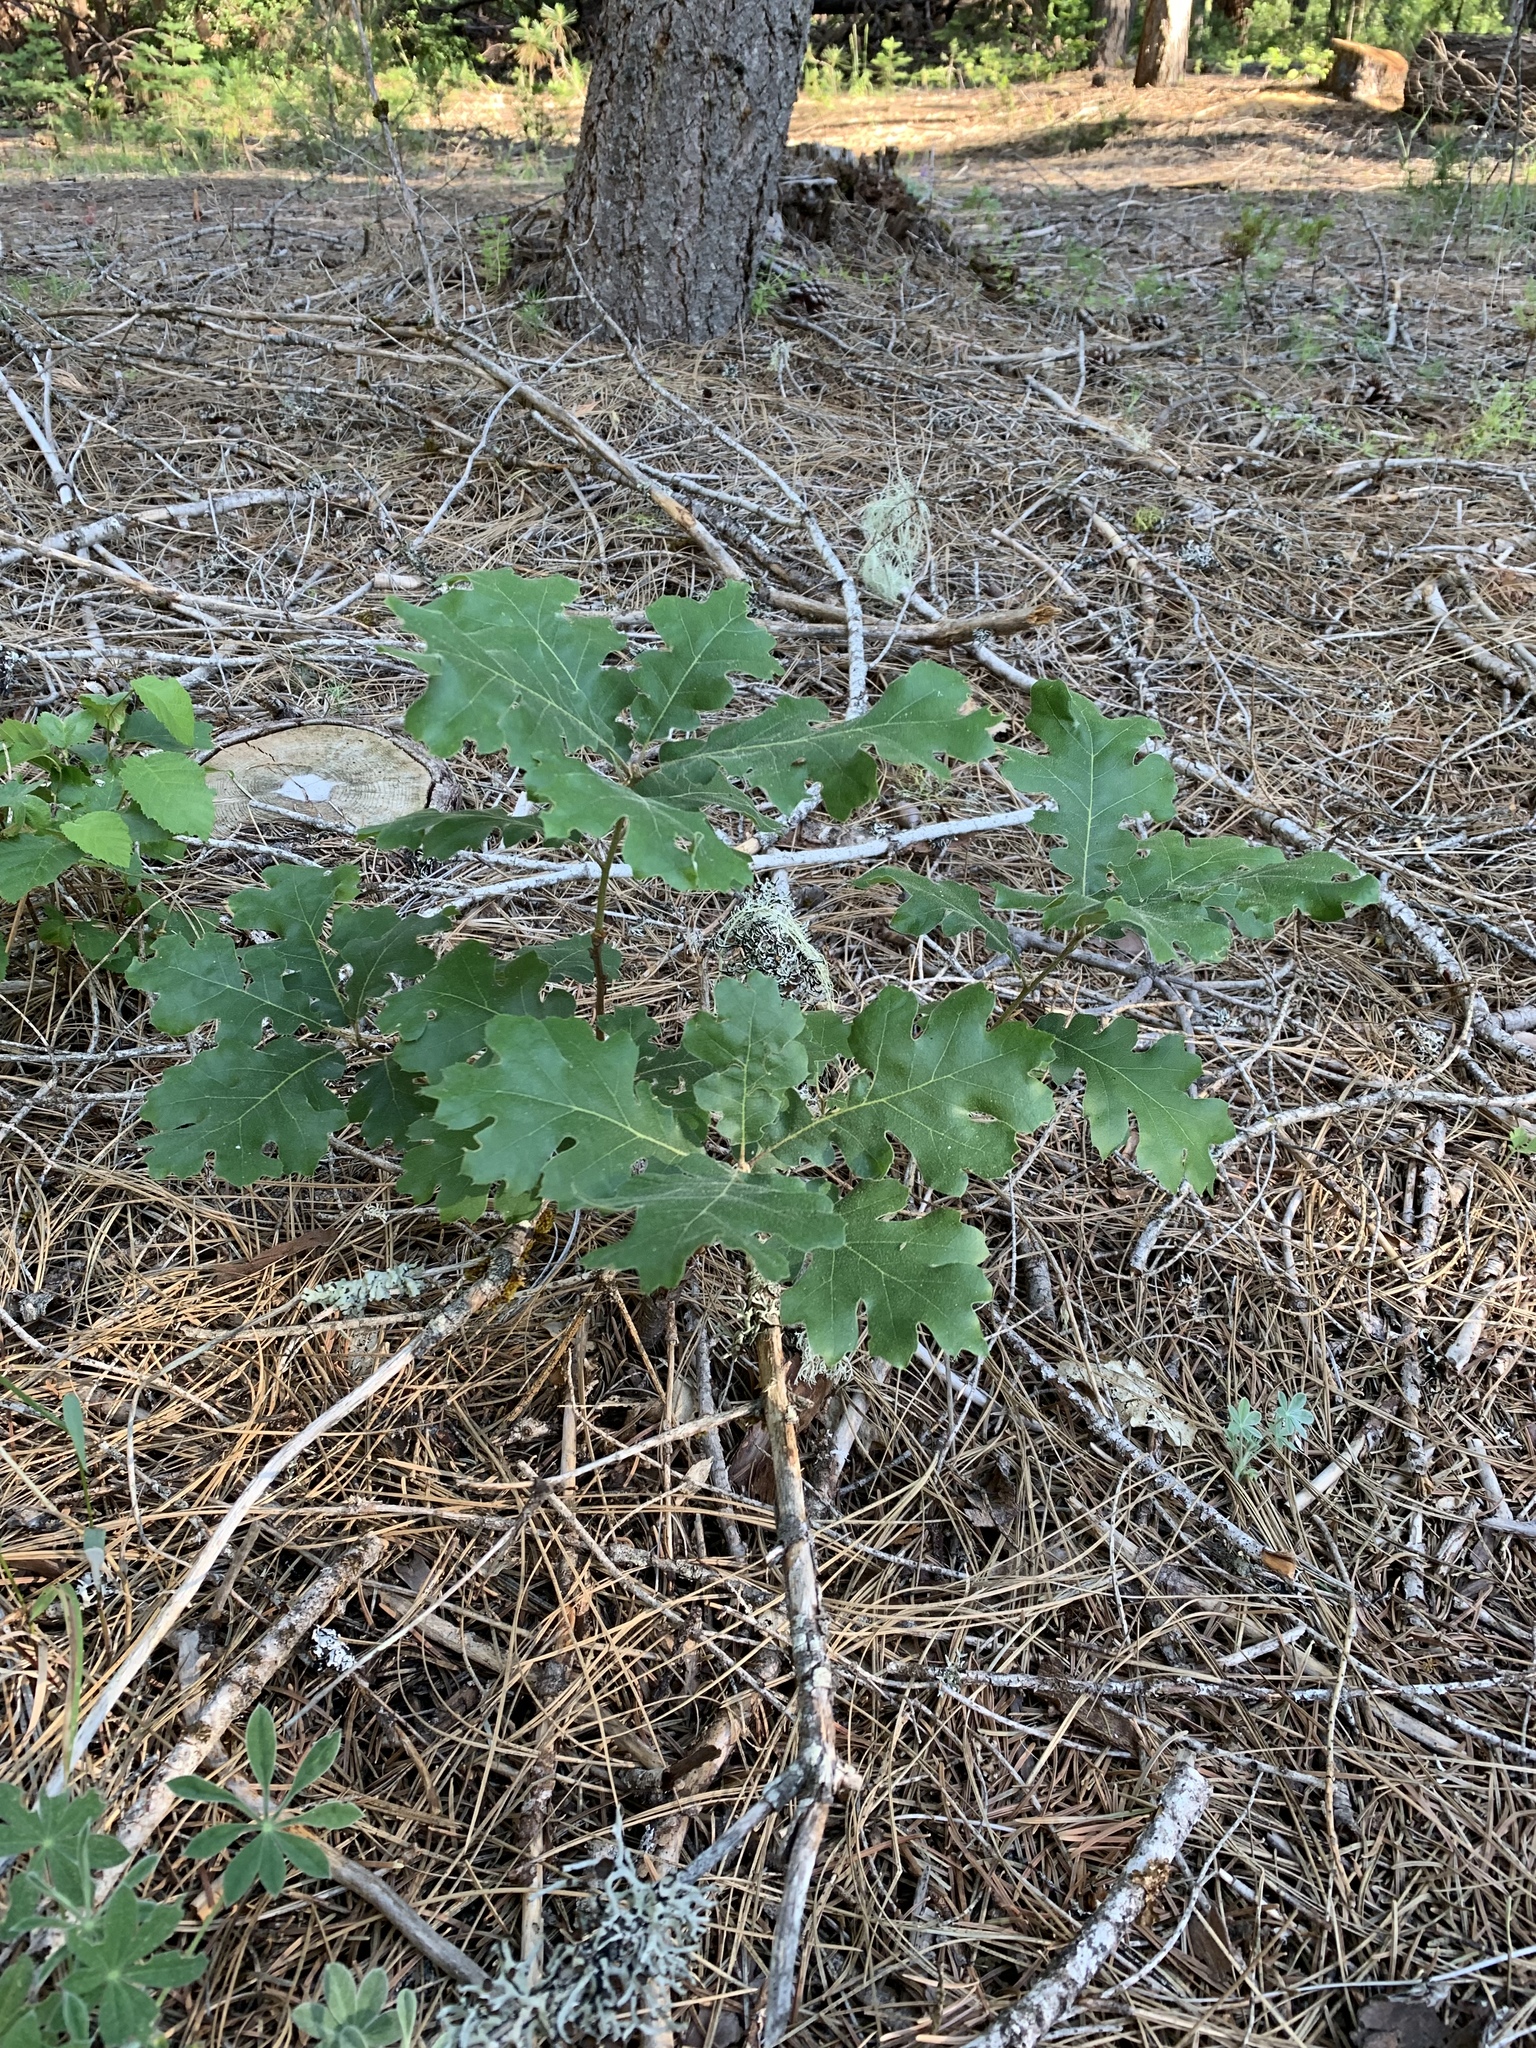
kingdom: Plantae
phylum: Tracheophyta
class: Magnoliopsida
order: Fagales
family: Fagaceae
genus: Quercus
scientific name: Quercus kelloggii
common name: California black oak
